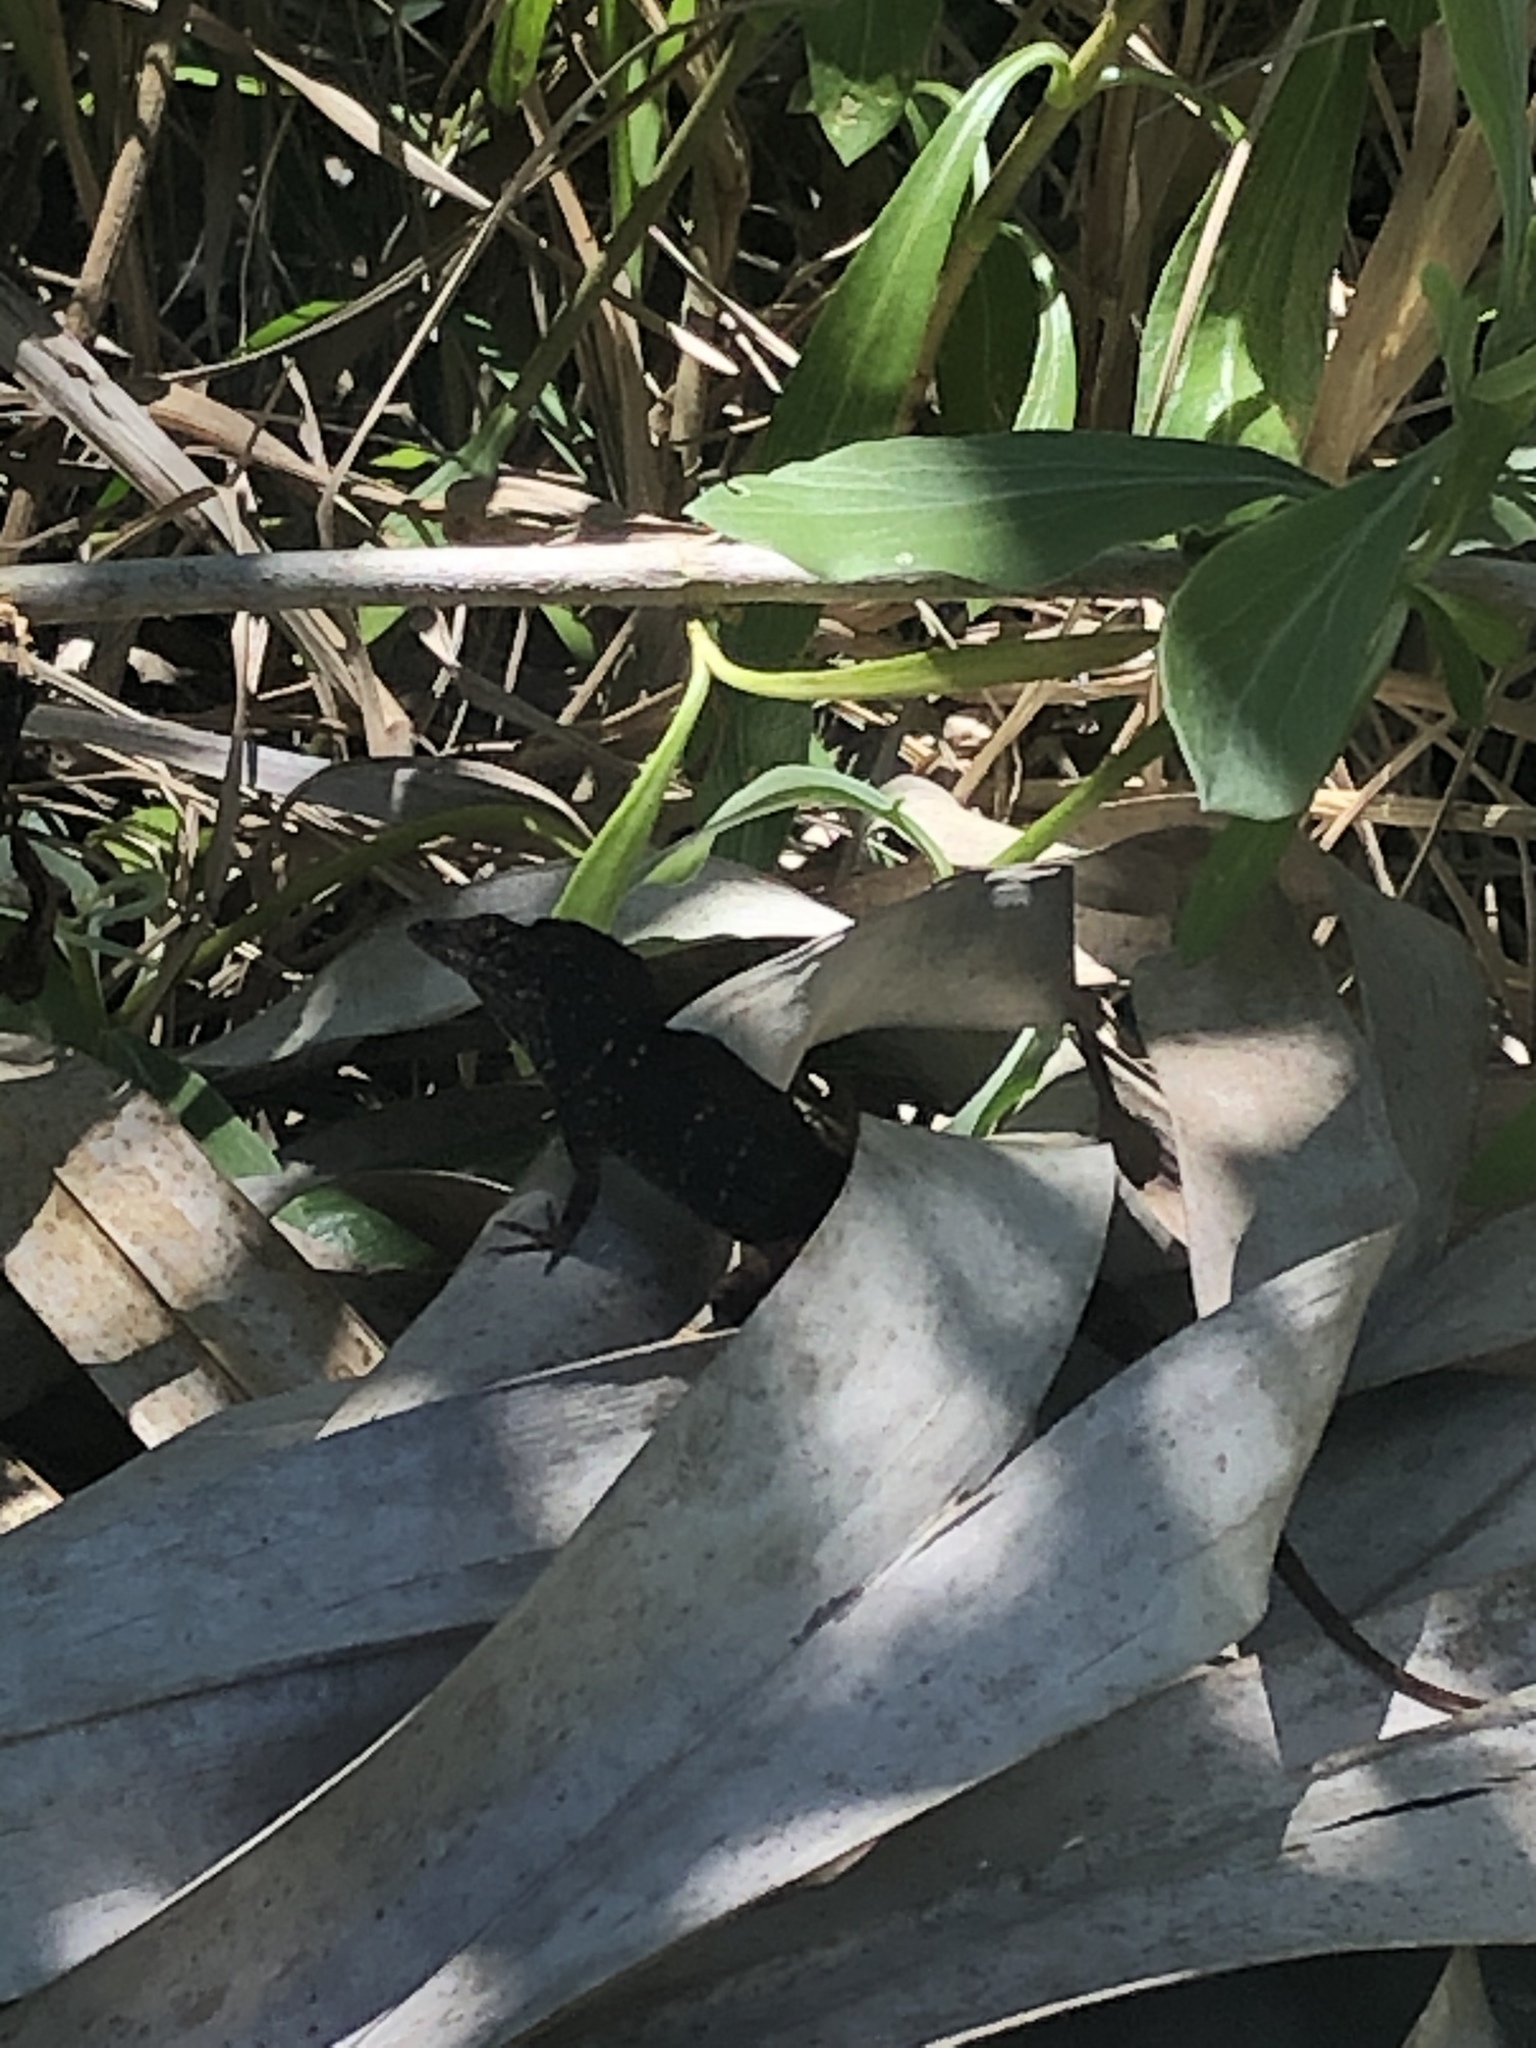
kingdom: Animalia
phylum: Chordata
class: Squamata
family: Dactyloidae
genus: Anolis
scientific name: Anolis sagrei
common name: Brown anole
